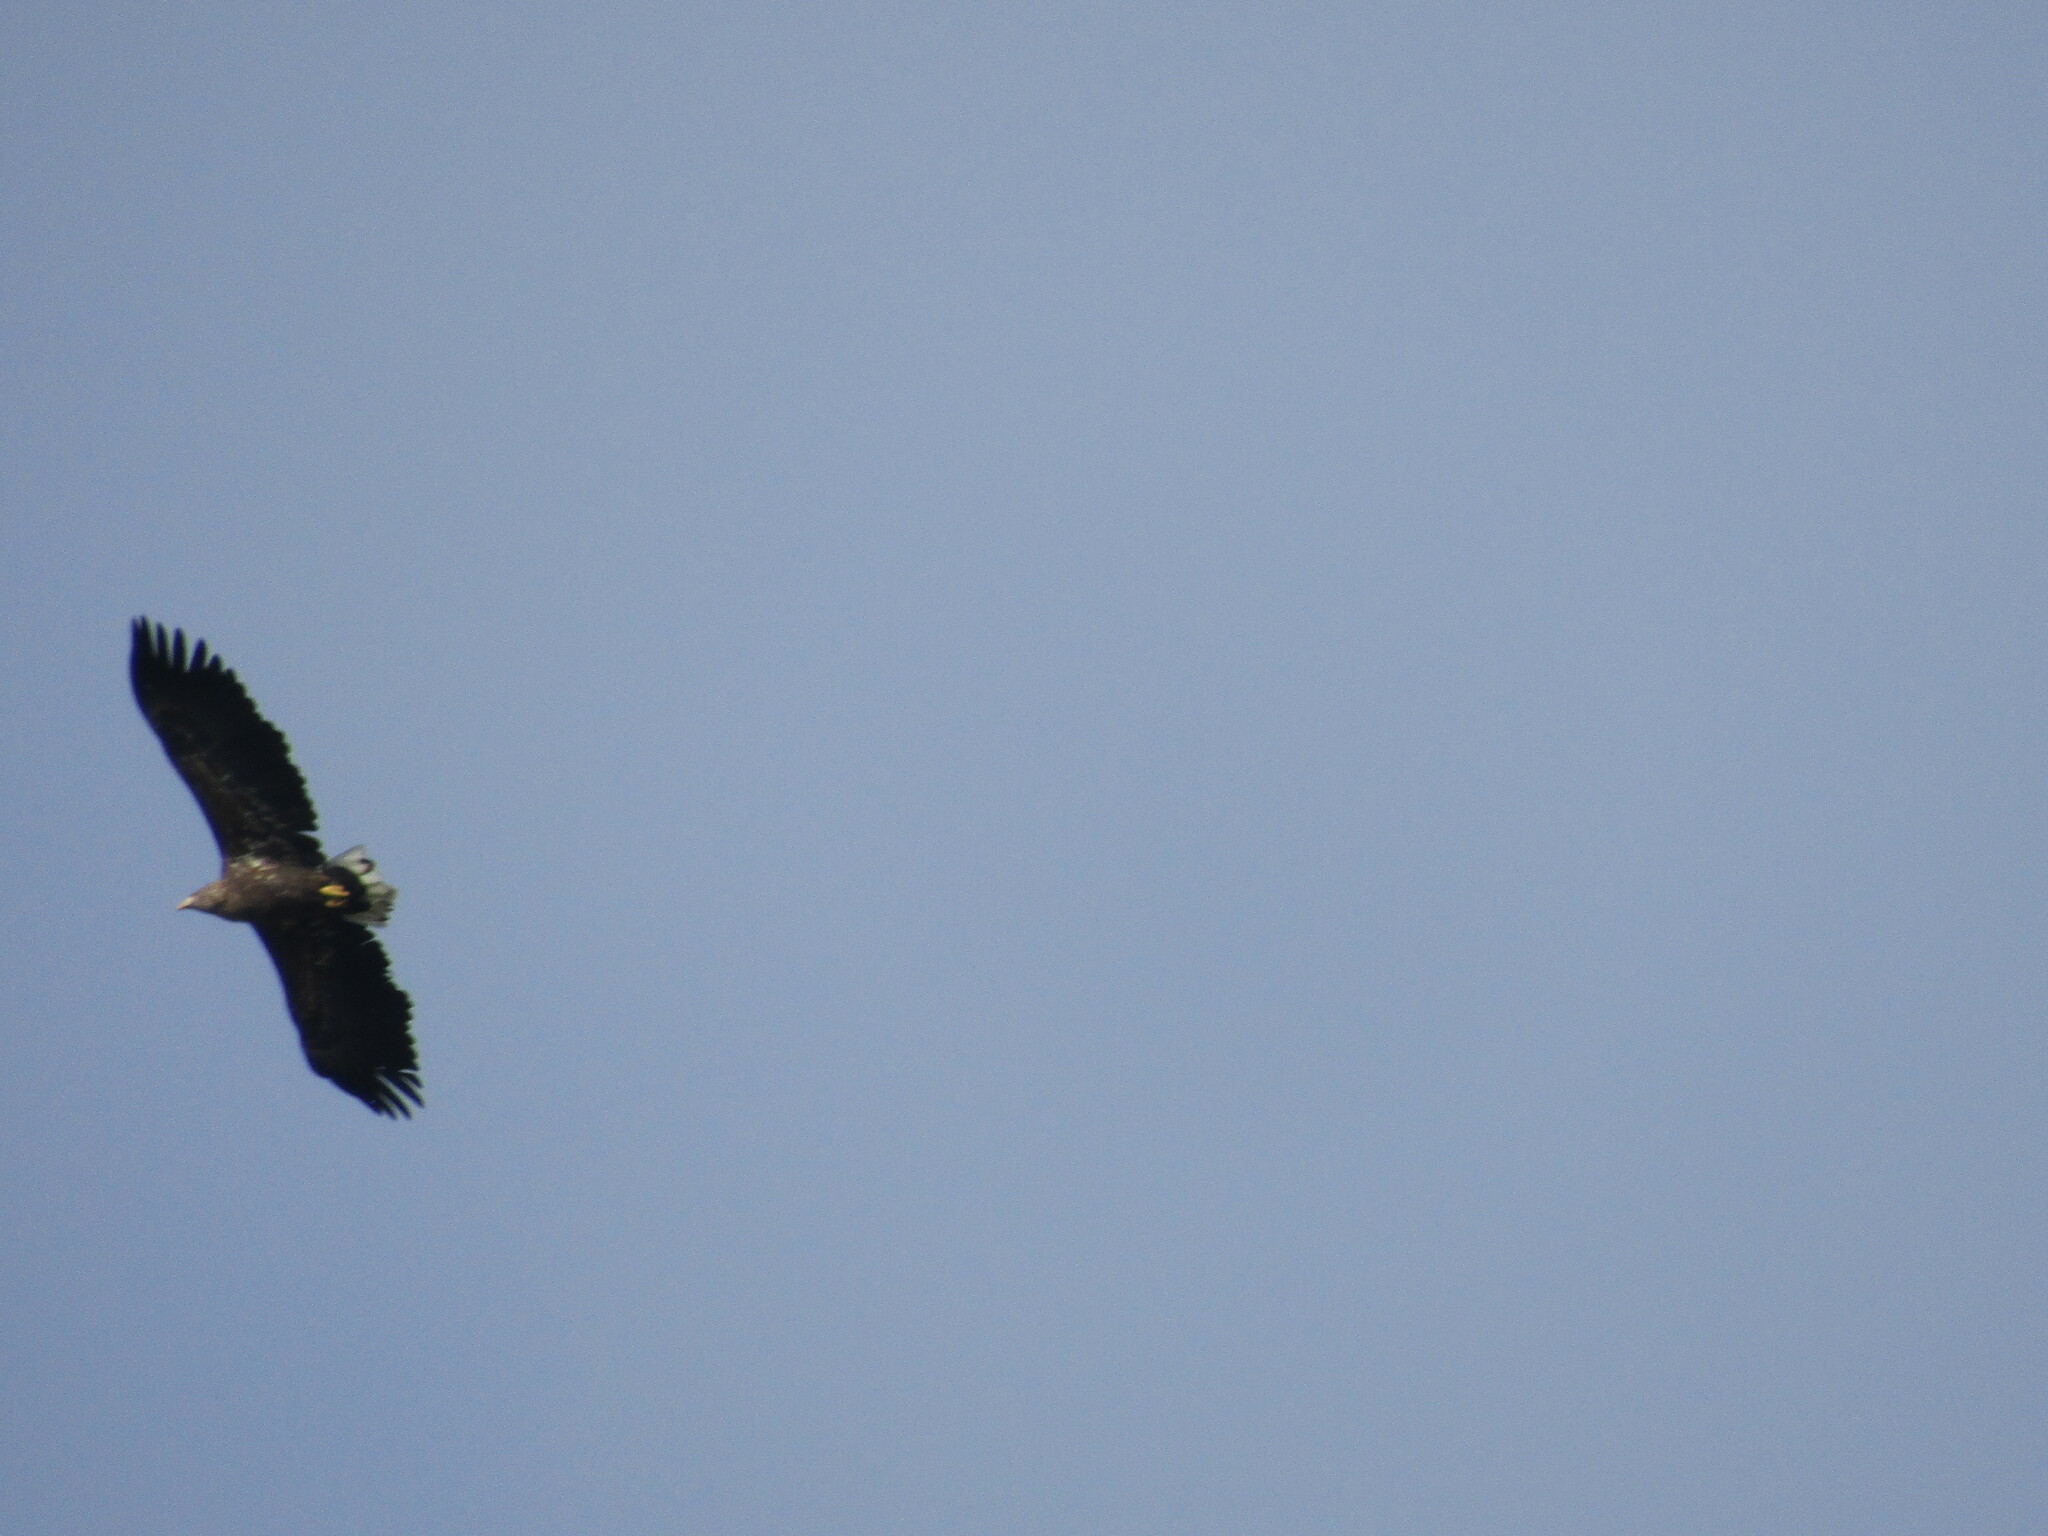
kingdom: Animalia
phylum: Chordata
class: Aves
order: Accipitriformes
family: Accipitridae
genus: Haliaeetus
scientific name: Haliaeetus albicilla
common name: White-tailed eagle
